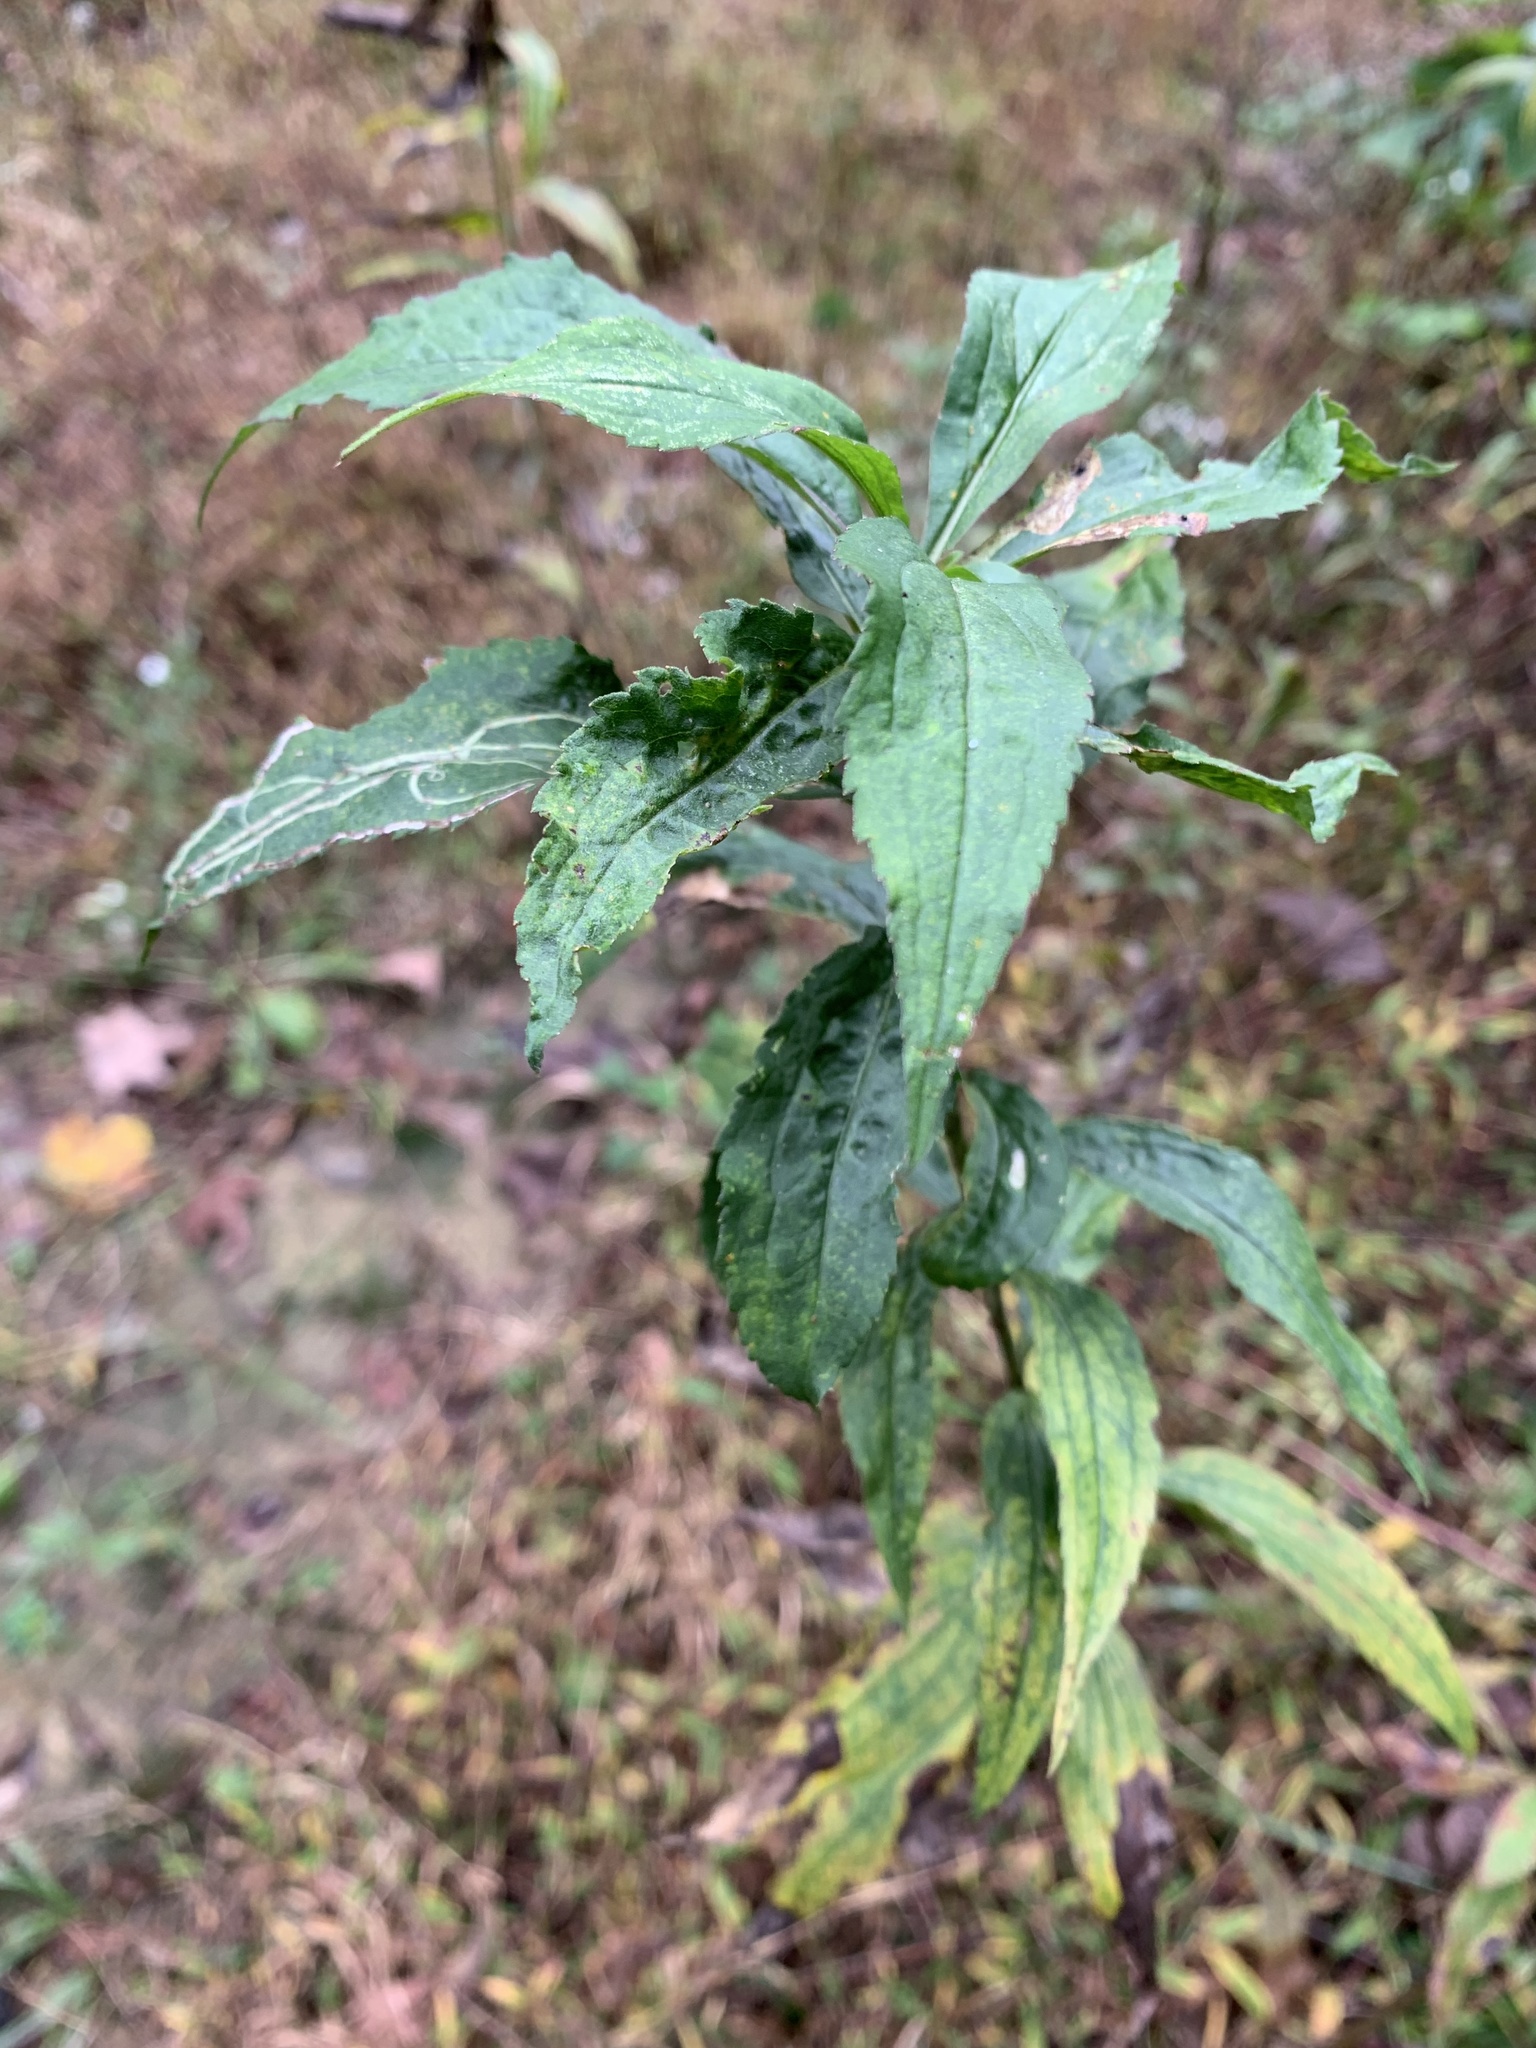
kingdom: Animalia
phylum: Arthropoda
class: Insecta
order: Diptera
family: Agromyzidae
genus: Ophiomyia
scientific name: Ophiomyia maura
